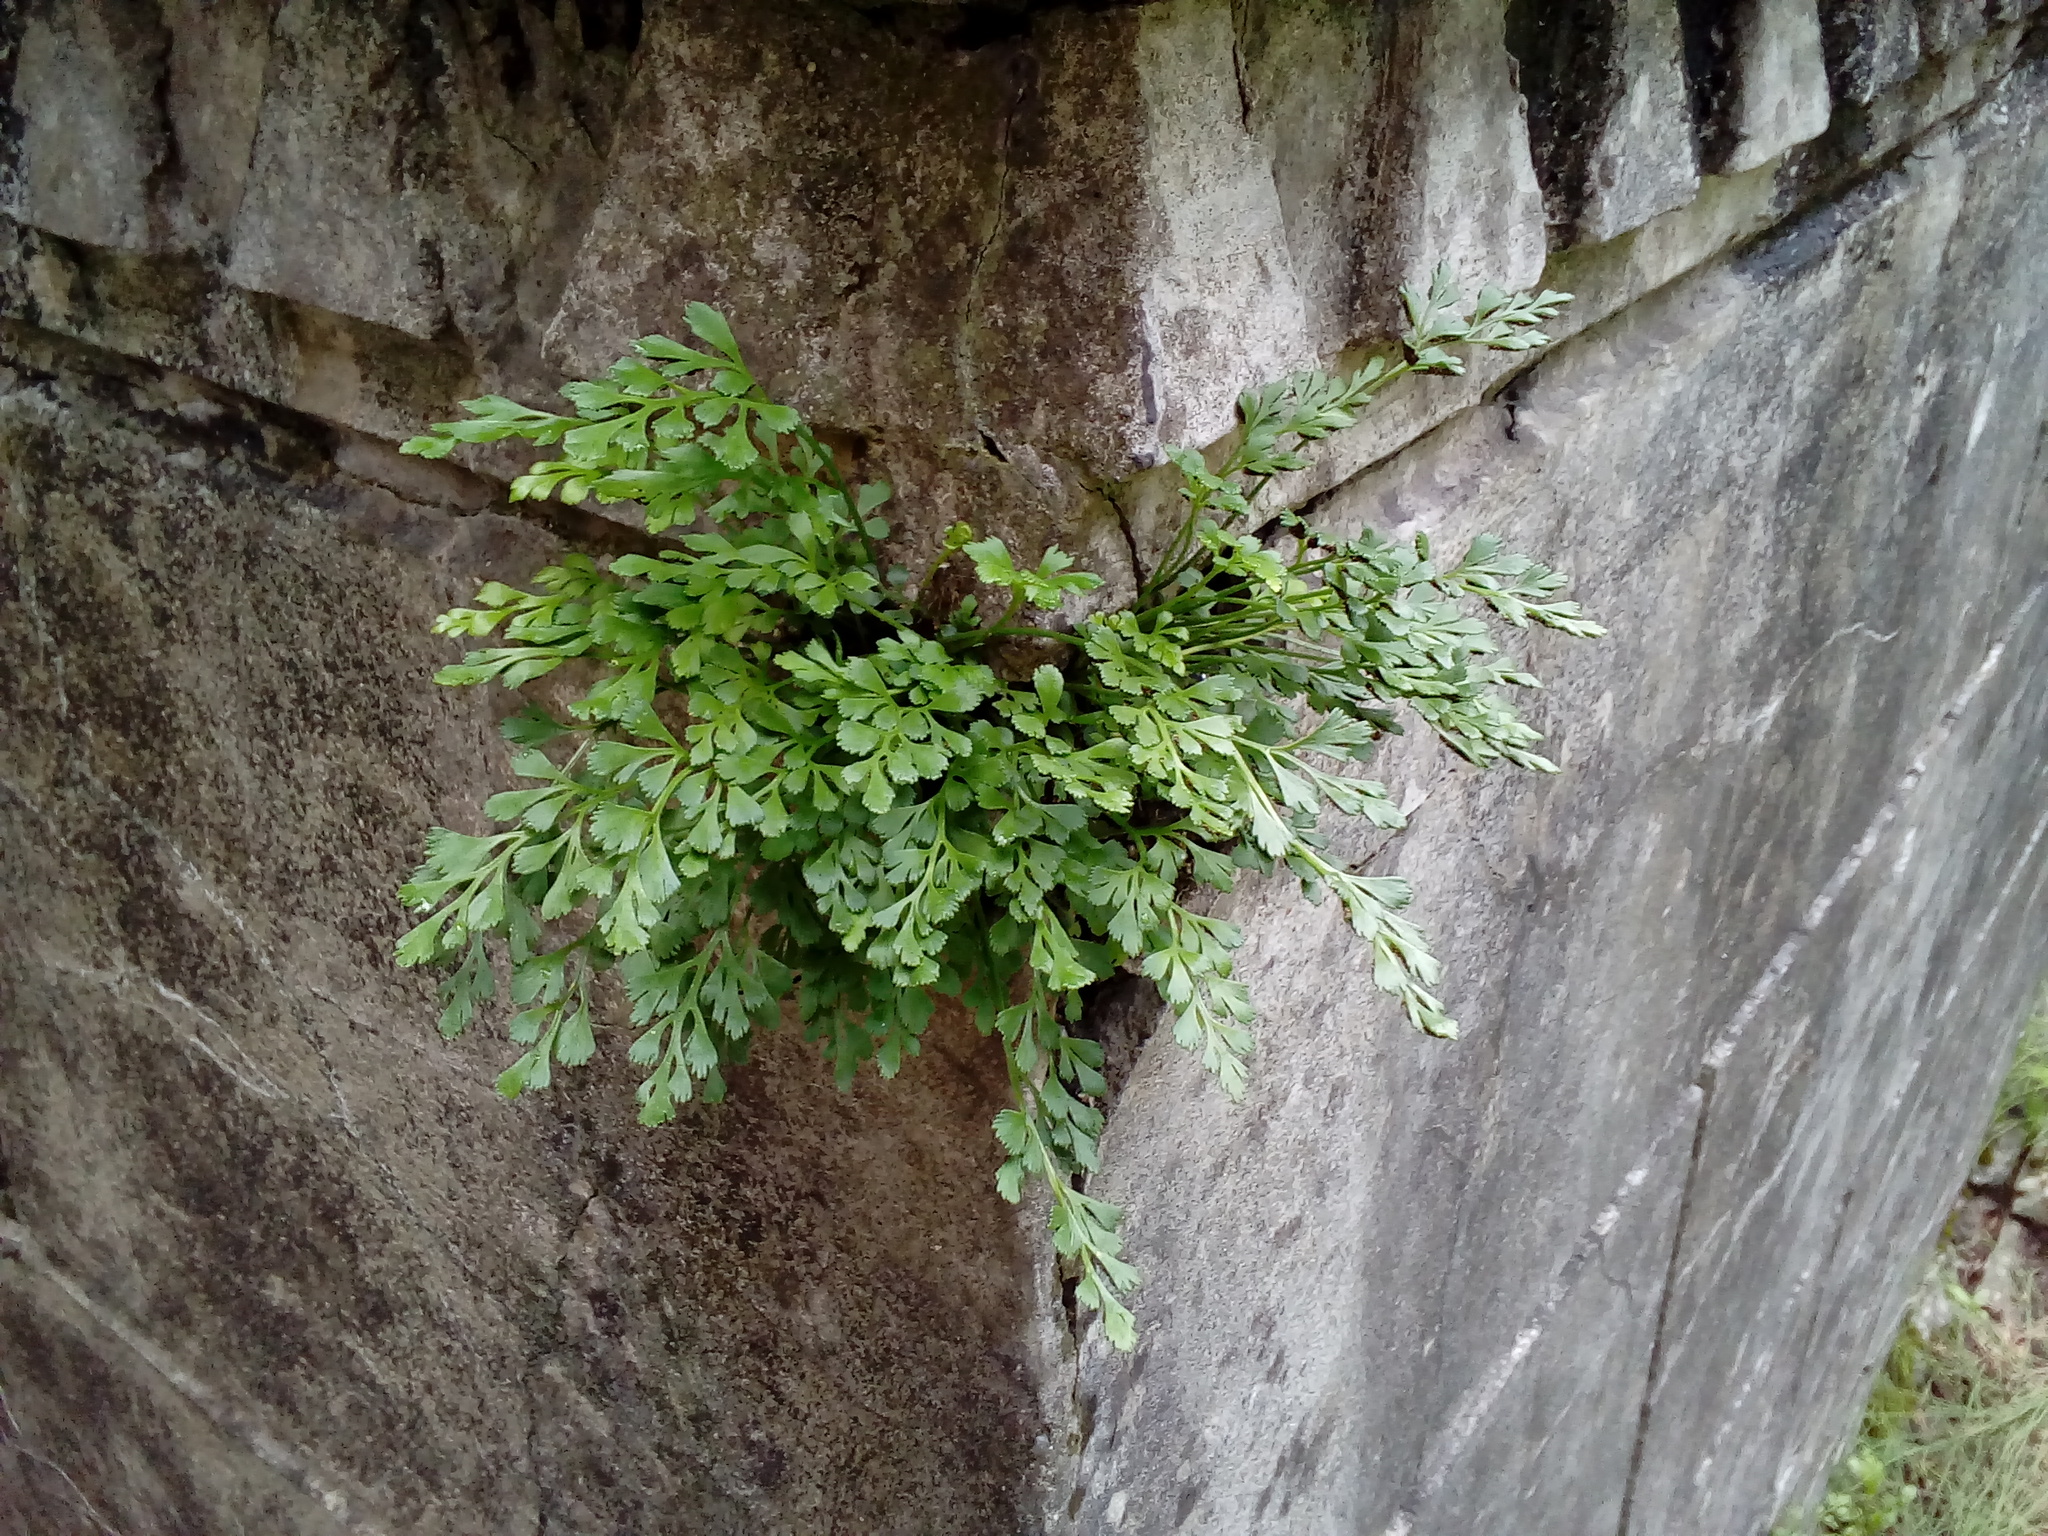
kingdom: Plantae
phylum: Tracheophyta
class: Polypodiopsida
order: Polypodiales
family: Aspleniaceae
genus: Asplenium
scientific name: Asplenium ruta-muraria
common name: Wall-rue
